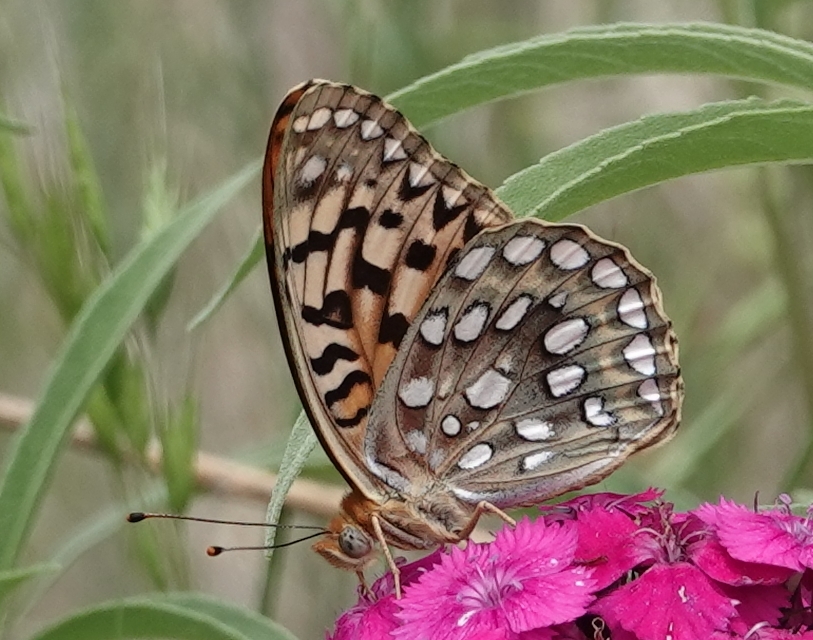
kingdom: Animalia
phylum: Arthropoda
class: Insecta
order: Lepidoptera
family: Nymphalidae
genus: Argynnis
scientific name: Argynnis coronis
